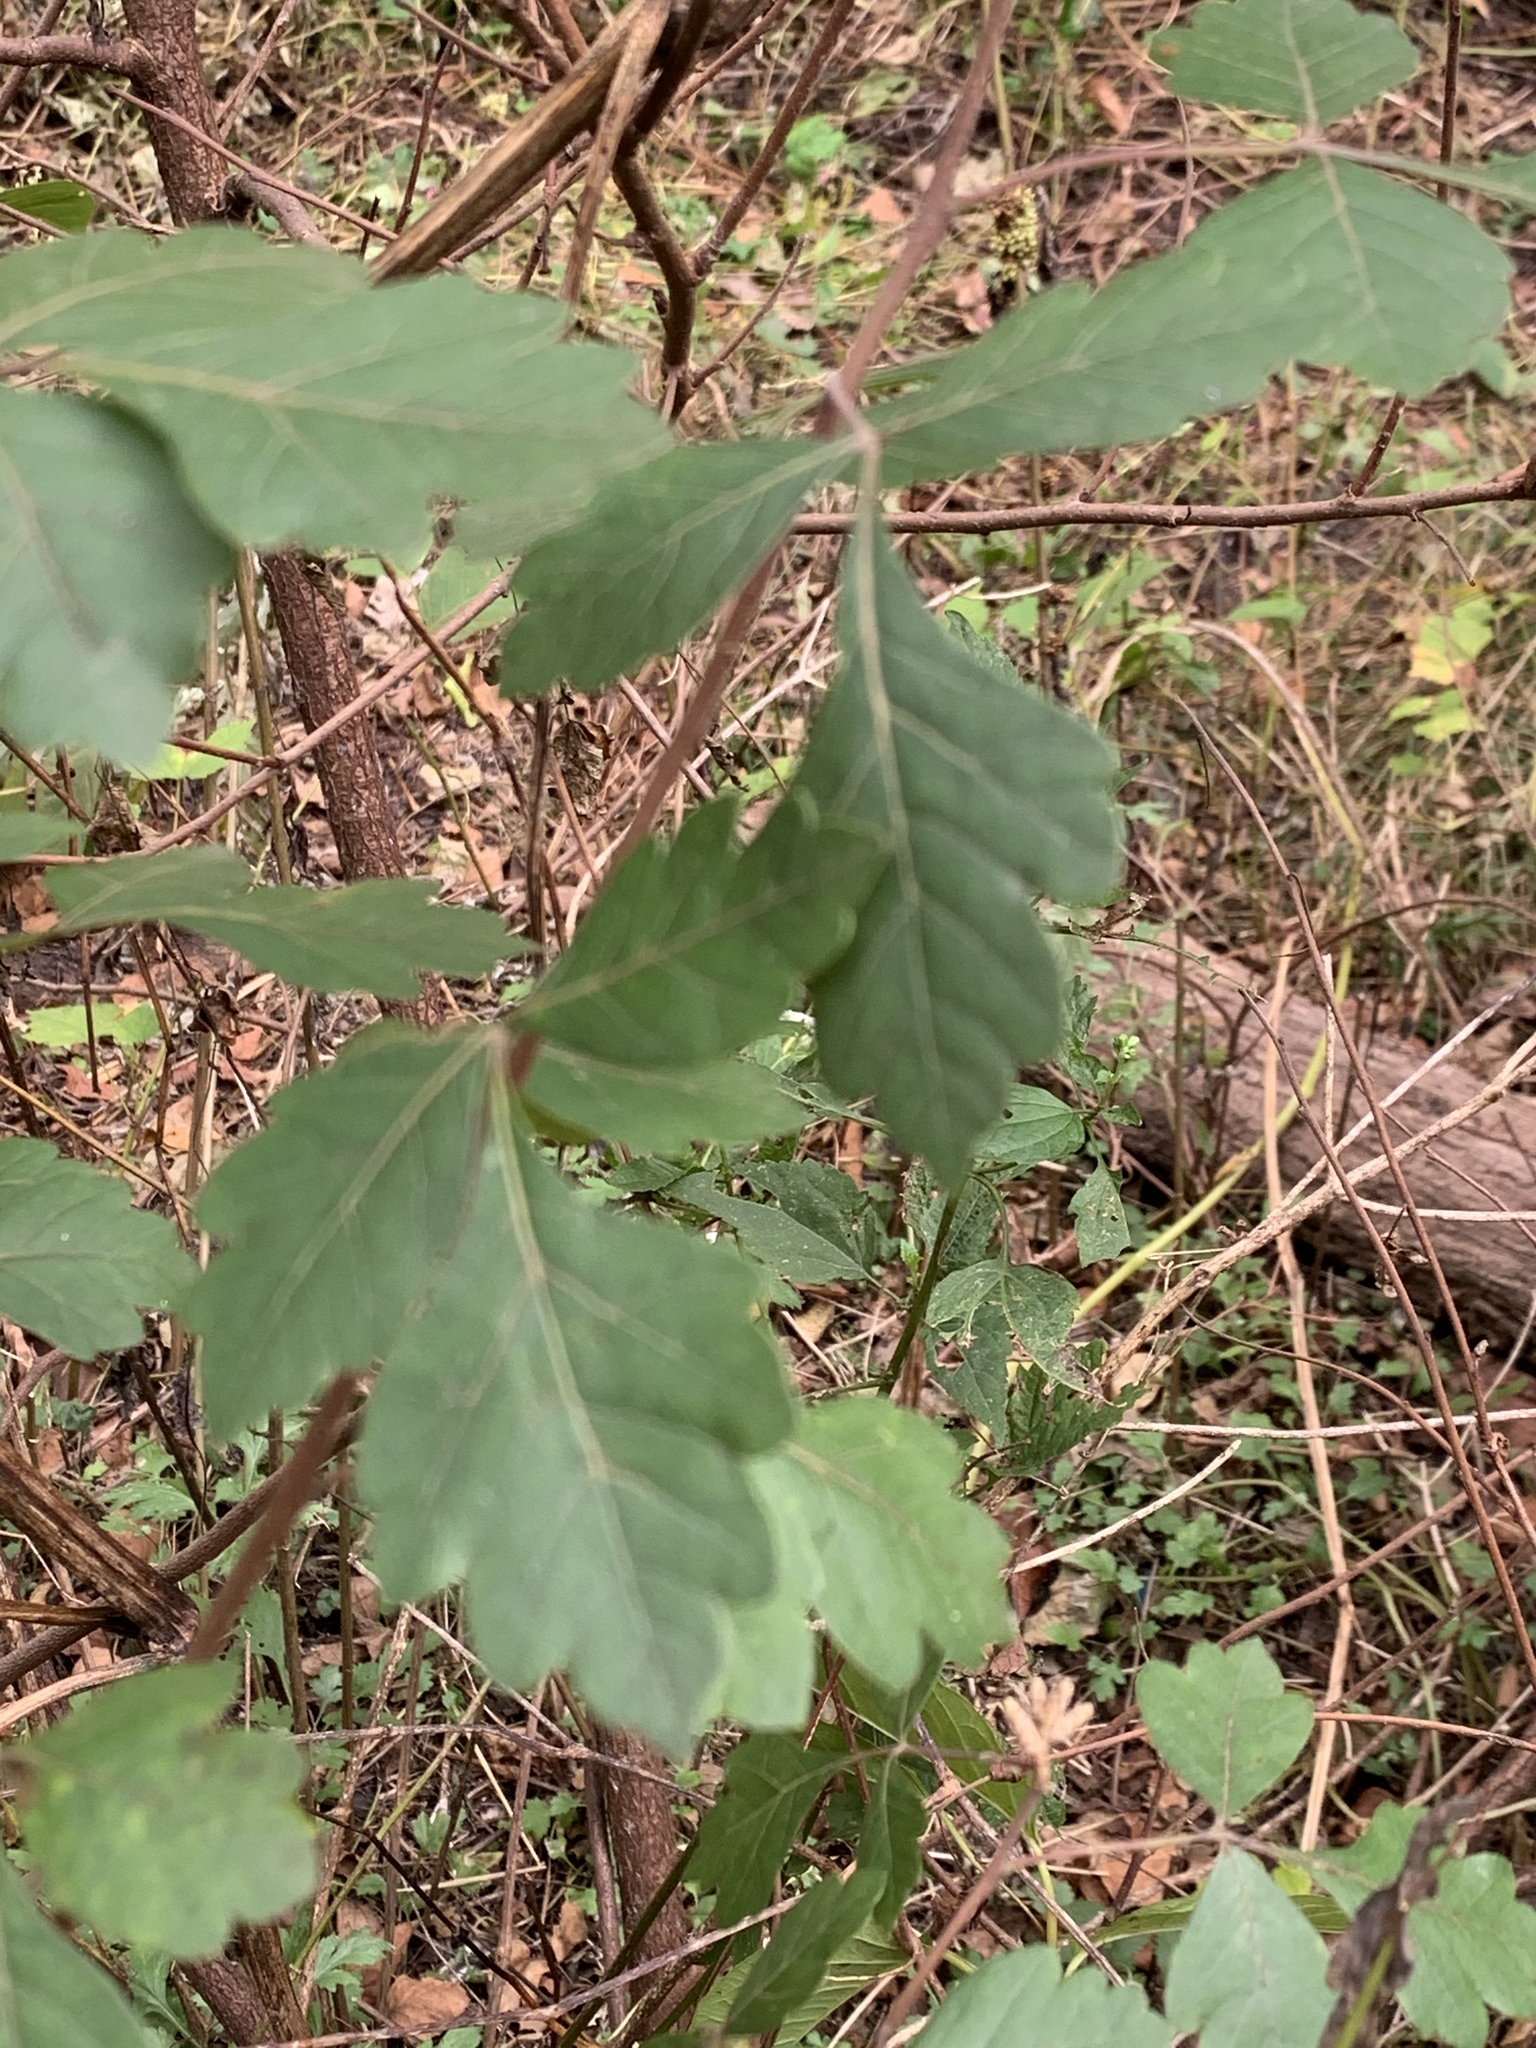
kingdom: Plantae
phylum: Tracheophyta
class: Magnoliopsida
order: Sapindales
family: Anacardiaceae
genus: Rhus
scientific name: Rhus aromatica
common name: Aromatic sumac
